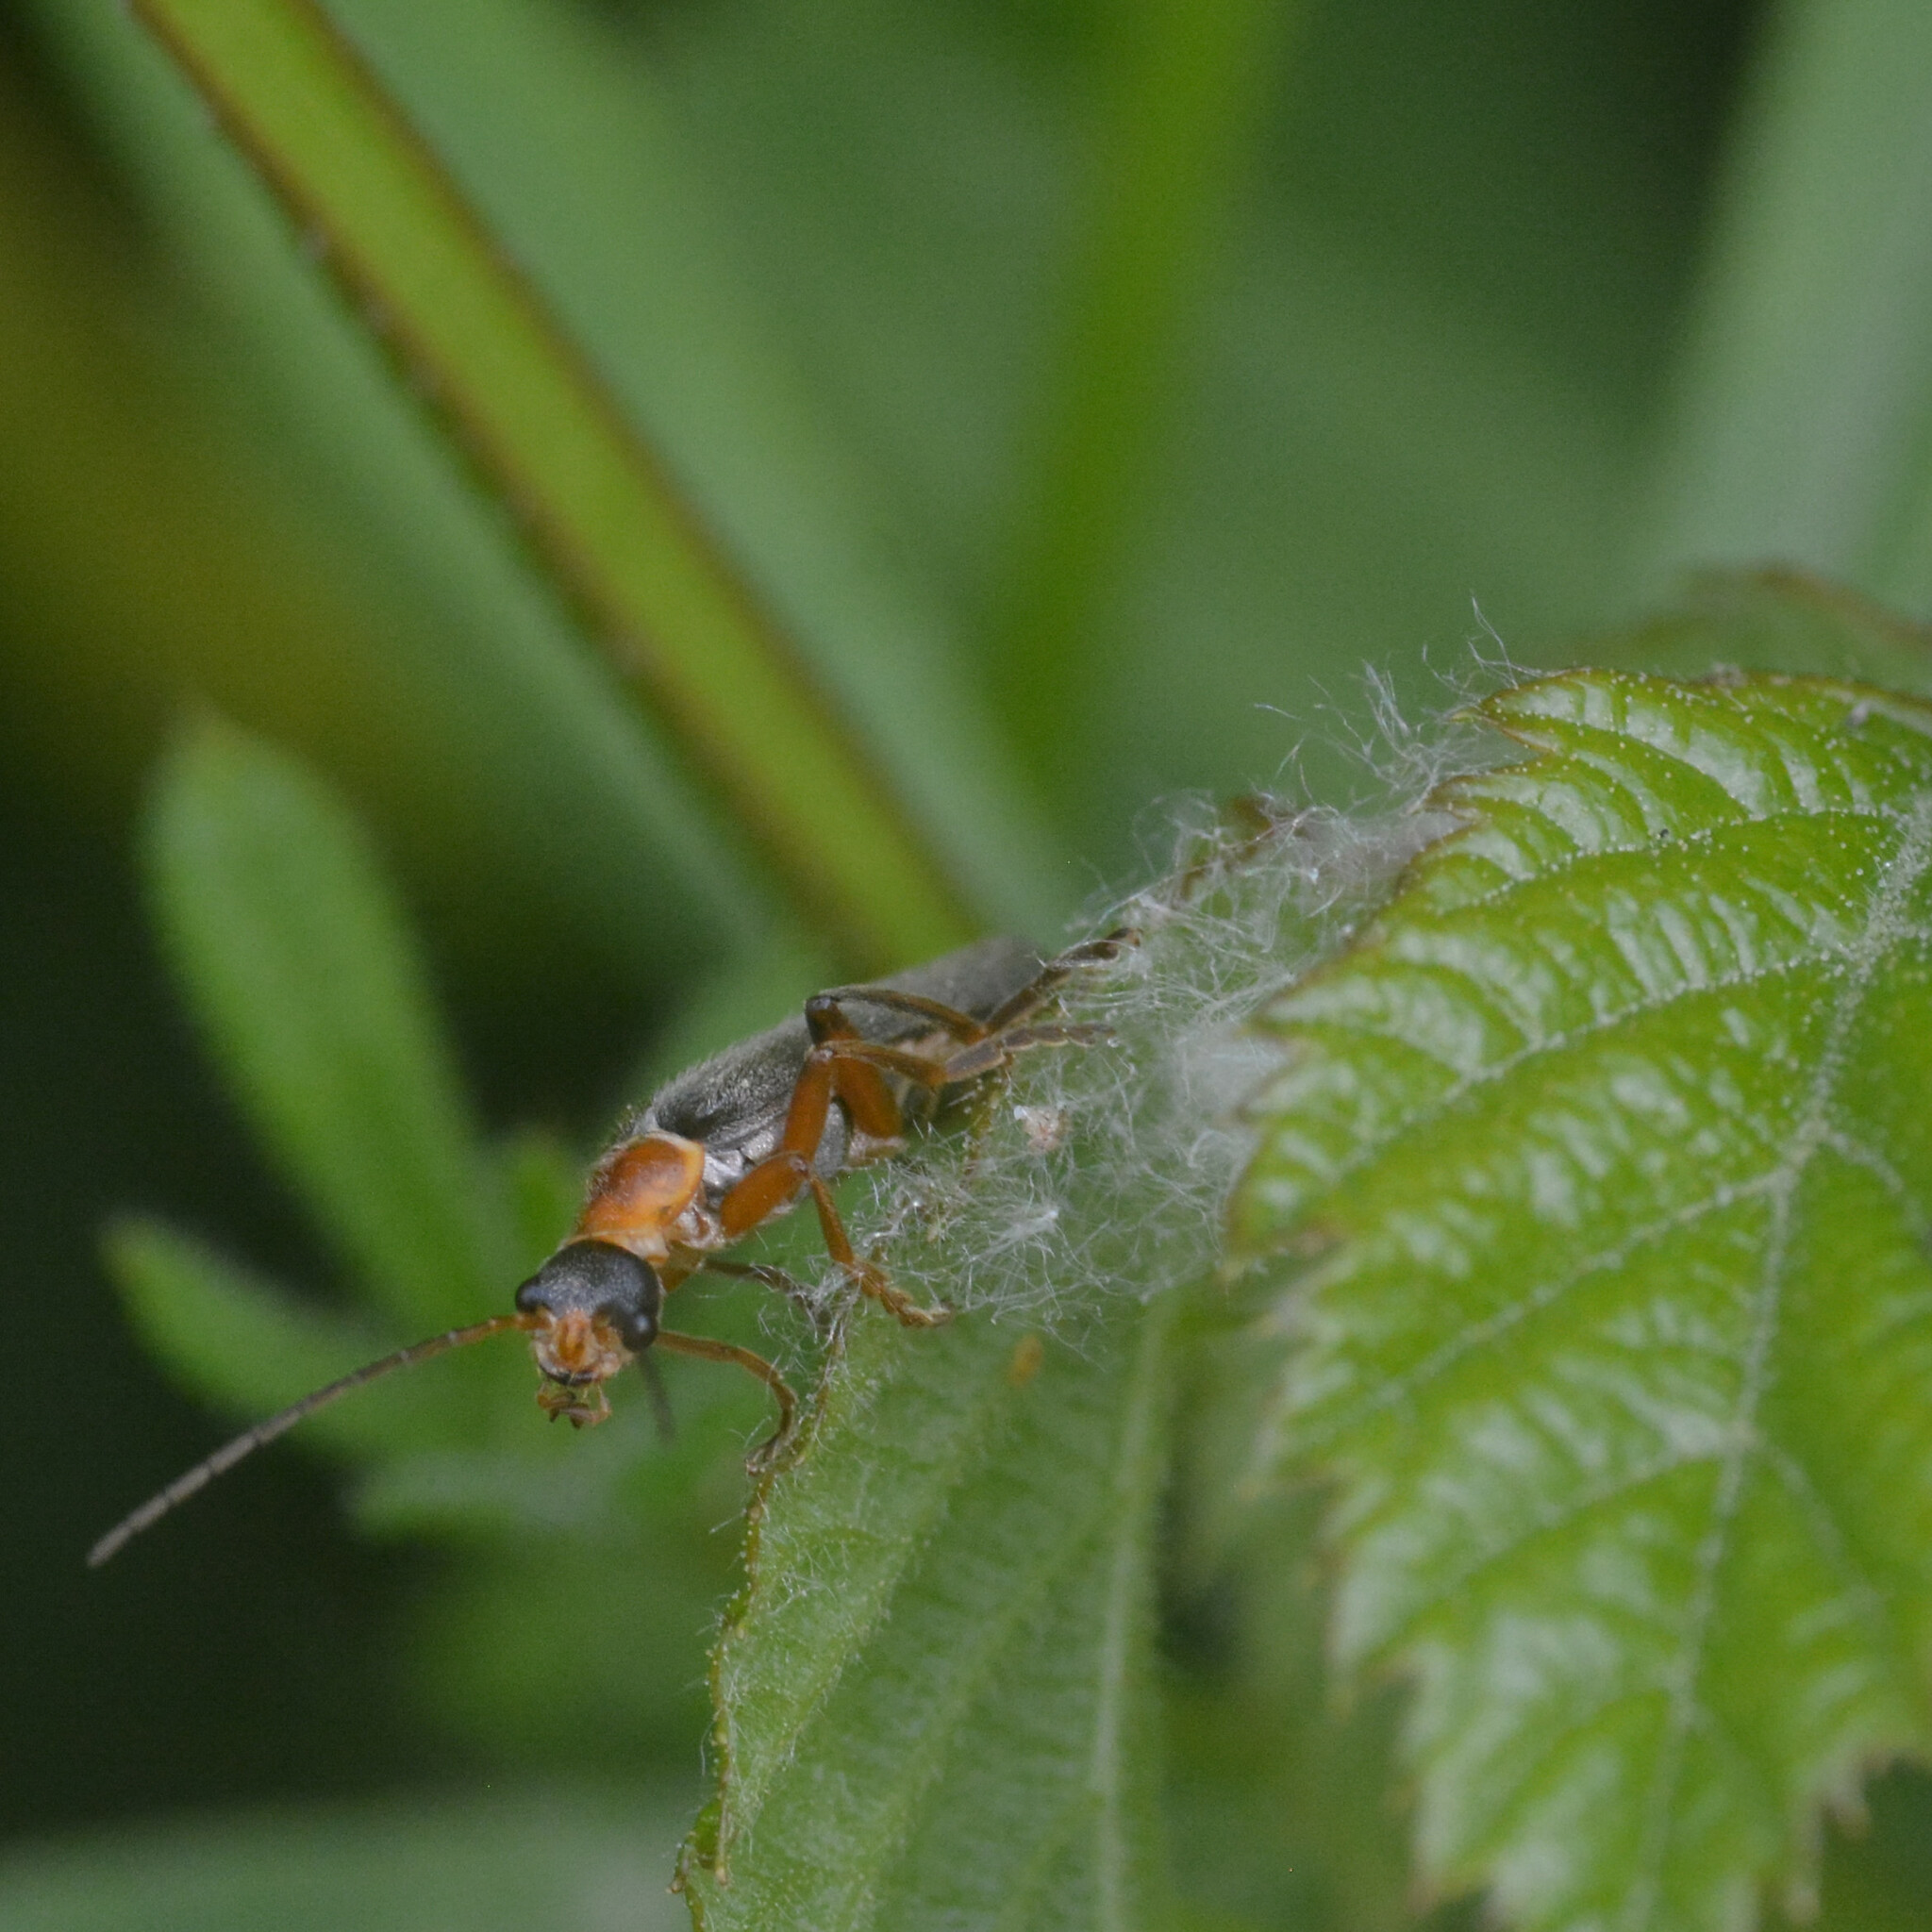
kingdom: Animalia
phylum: Arthropoda
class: Insecta
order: Coleoptera
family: Cantharidae
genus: Cantharis
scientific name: Cantharis nigricans
